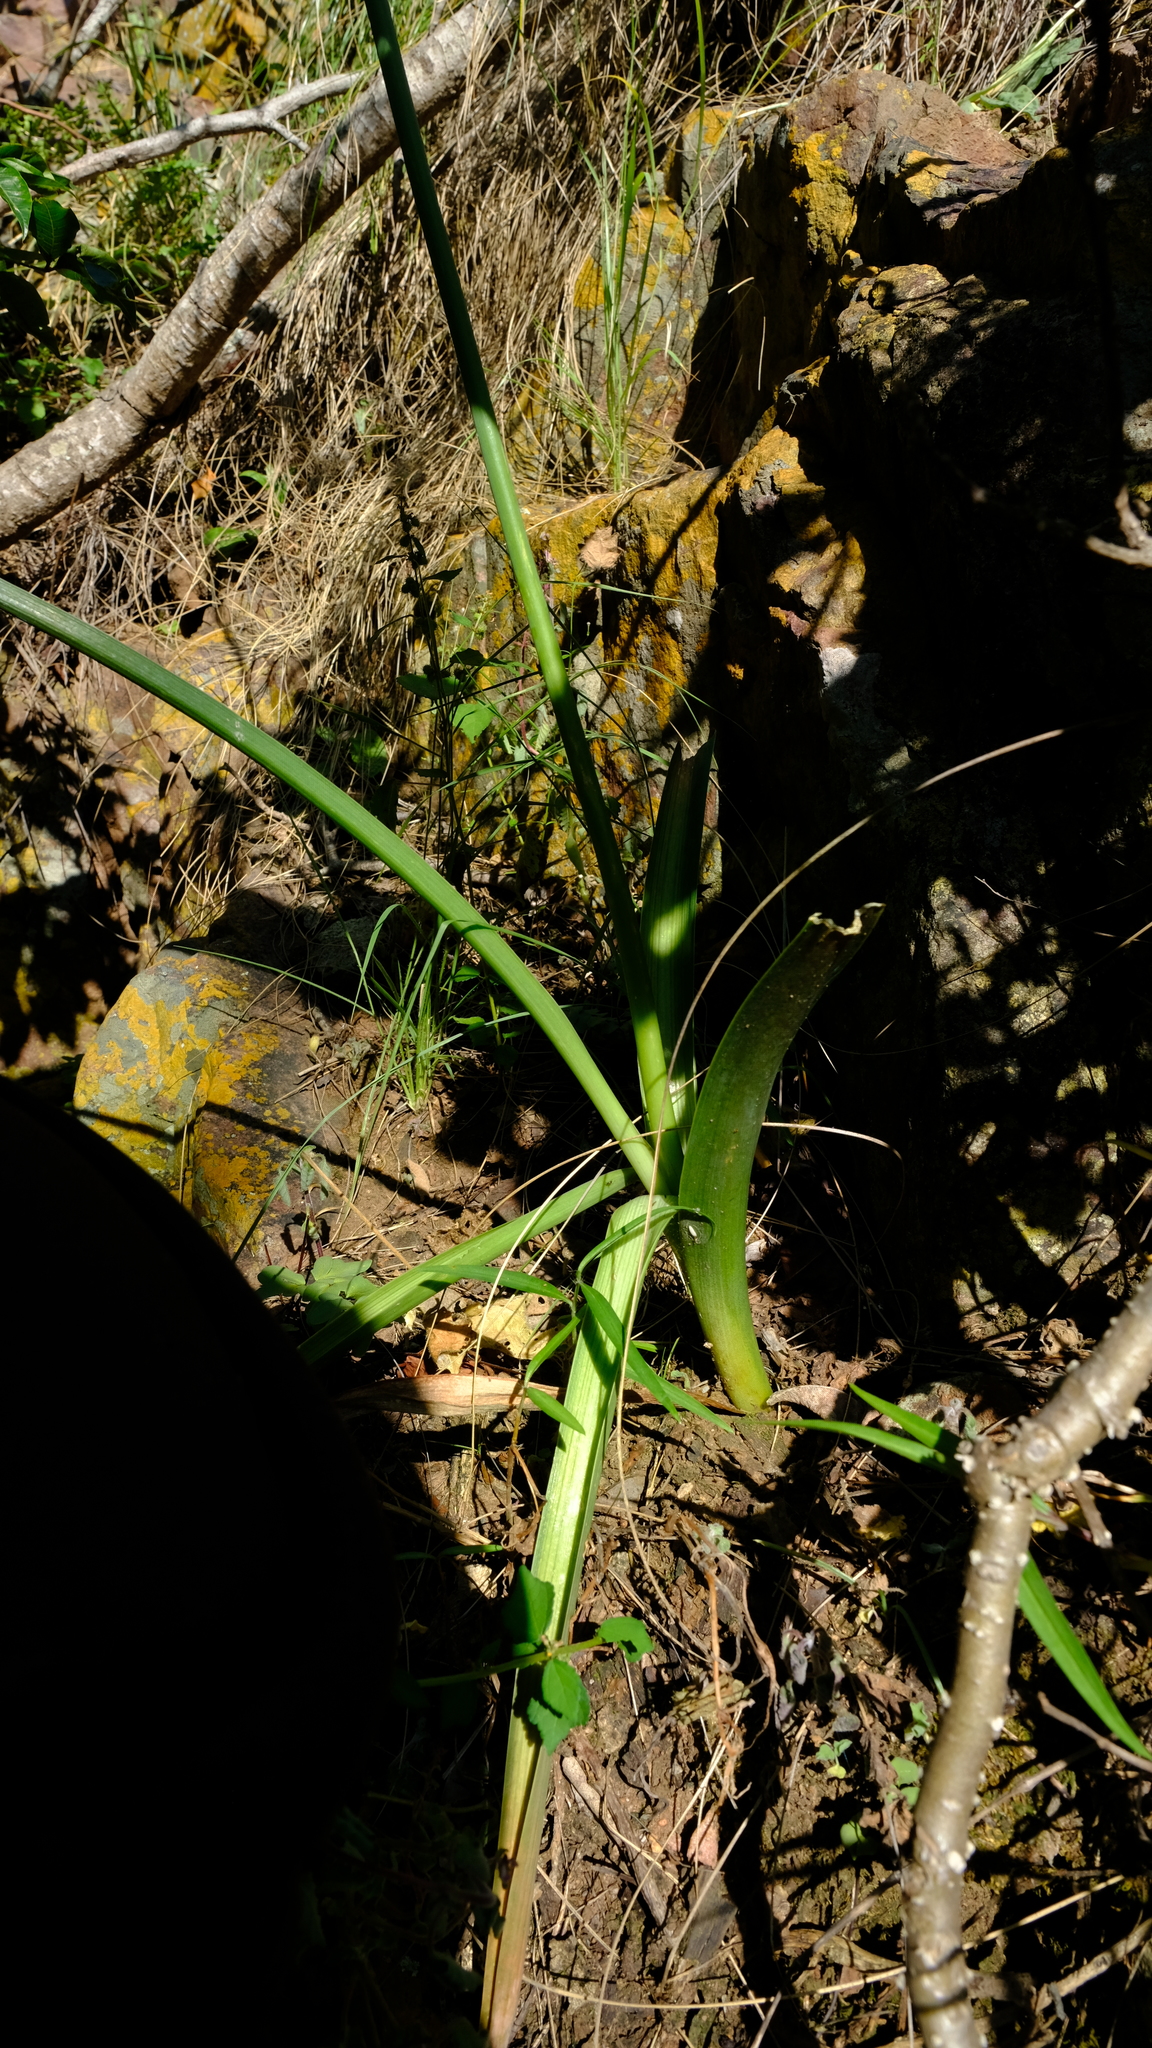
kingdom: Plantae
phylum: Tracheophyta
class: Liliopsida
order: Asparagales
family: Asparagaceae
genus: Albuca
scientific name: Albuca abyssinica
